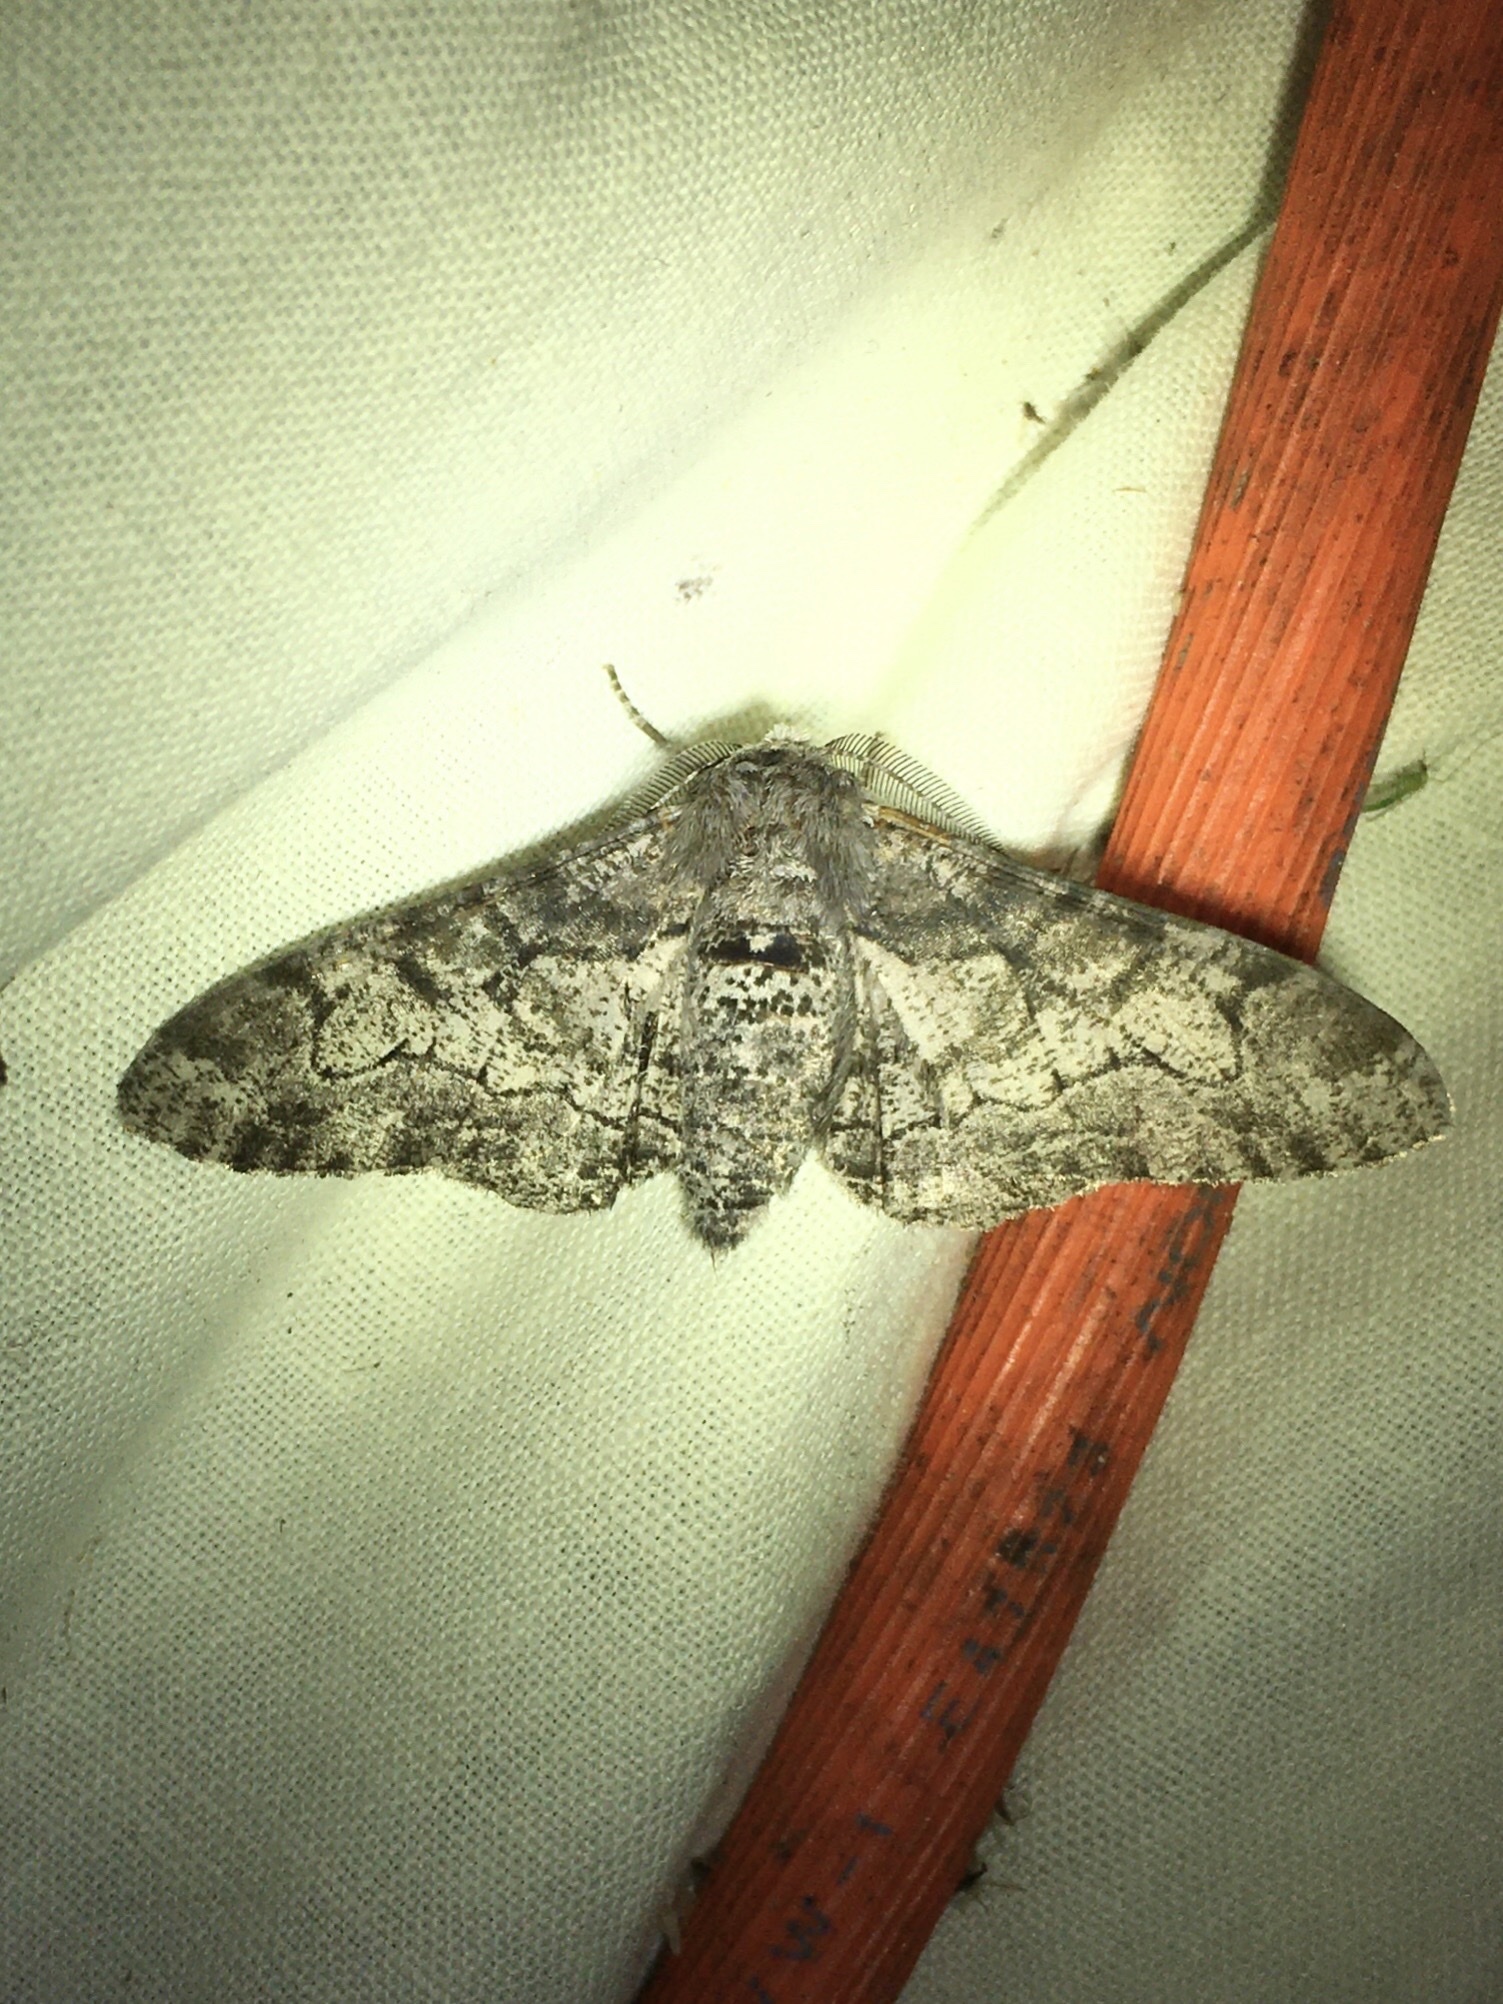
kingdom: Animalia
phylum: Arthropoda
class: Insecta
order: Lepidoptera
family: Geometridae
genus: Biston
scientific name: Biston betularia
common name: Peppered moth
